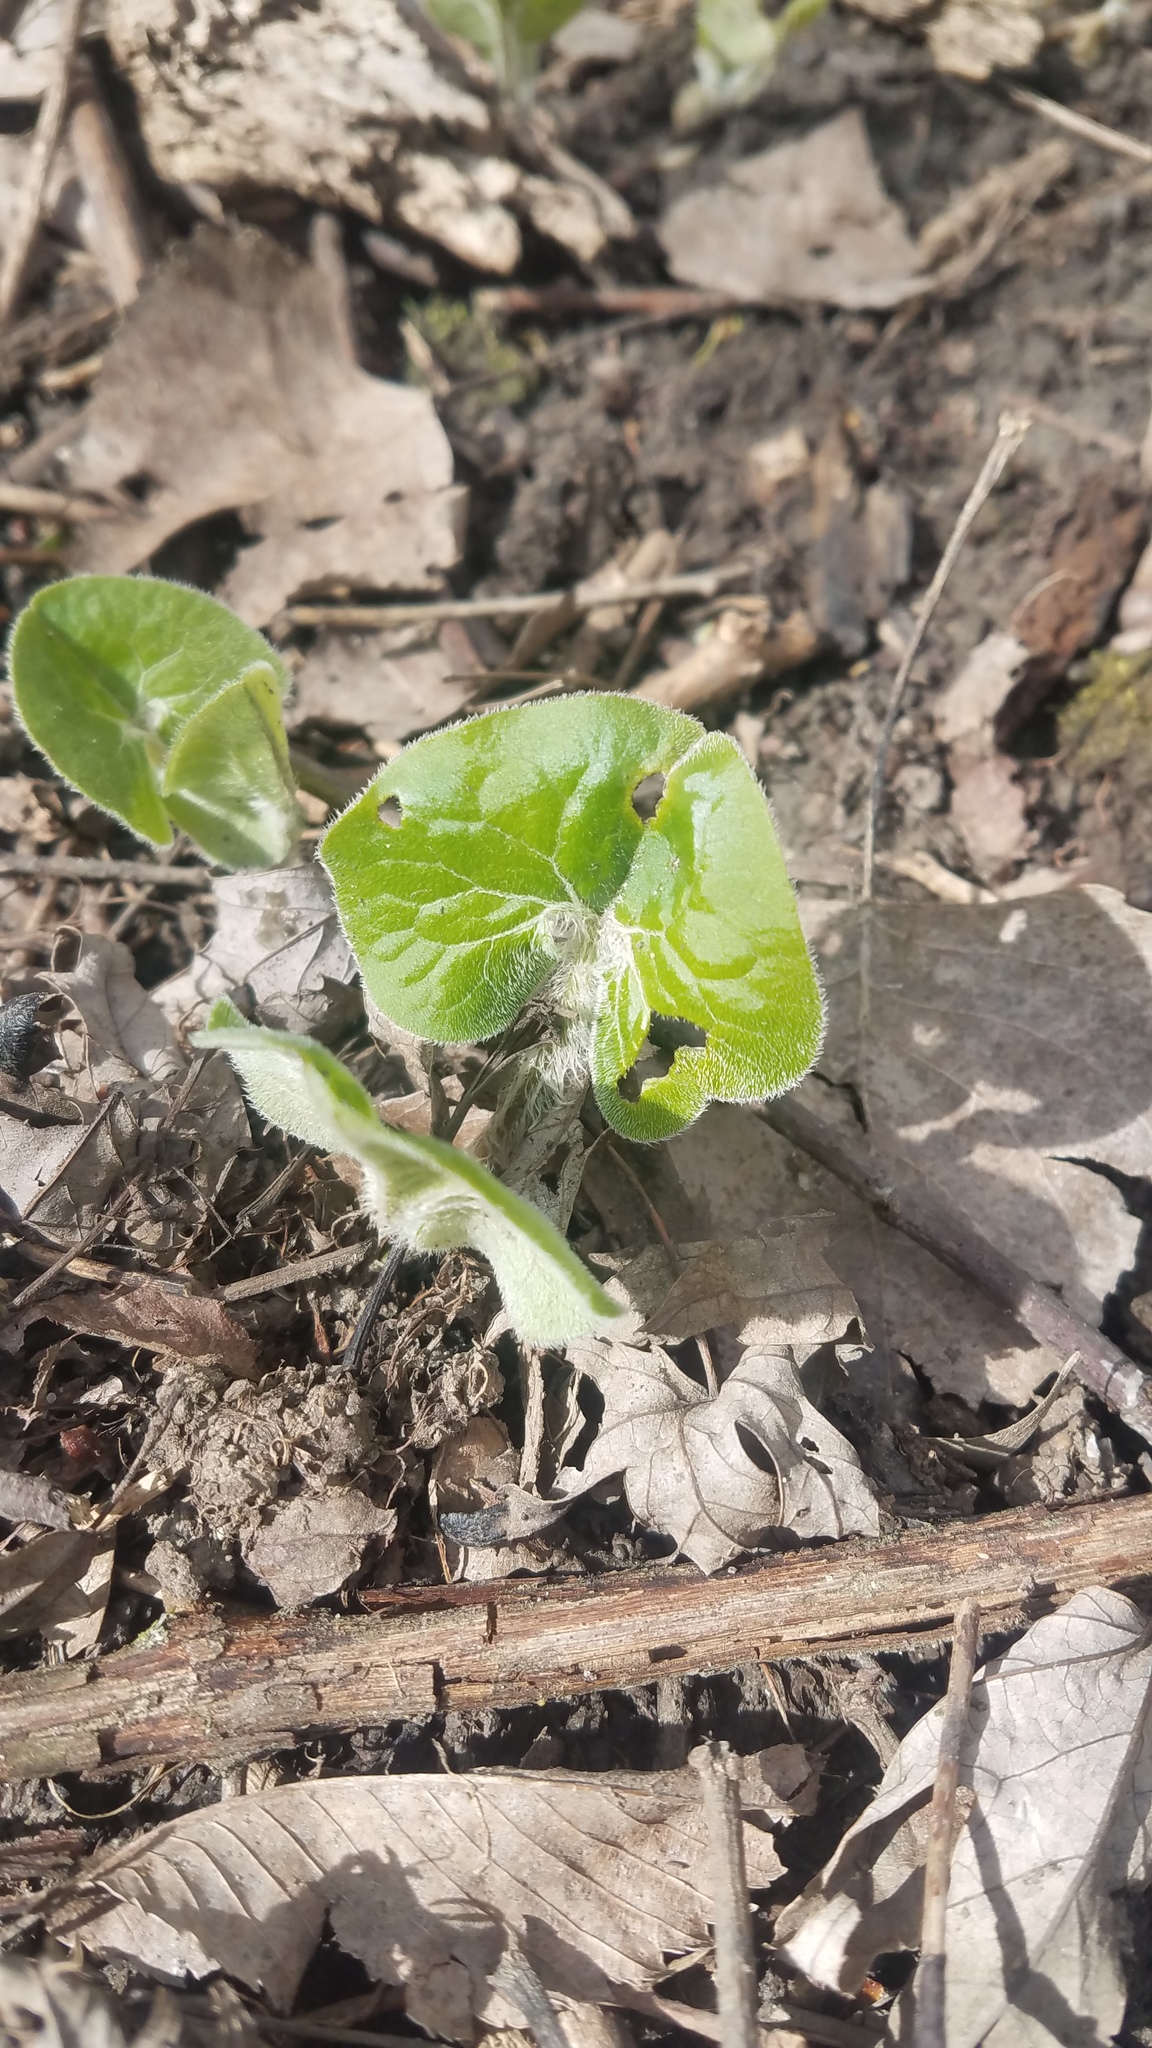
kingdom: Plantae
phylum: Tracheophyta
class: Magnoliopsida
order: Piperales
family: Aristolochiaceae
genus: Asarum
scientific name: Asarum canadense
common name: Wild ginger
